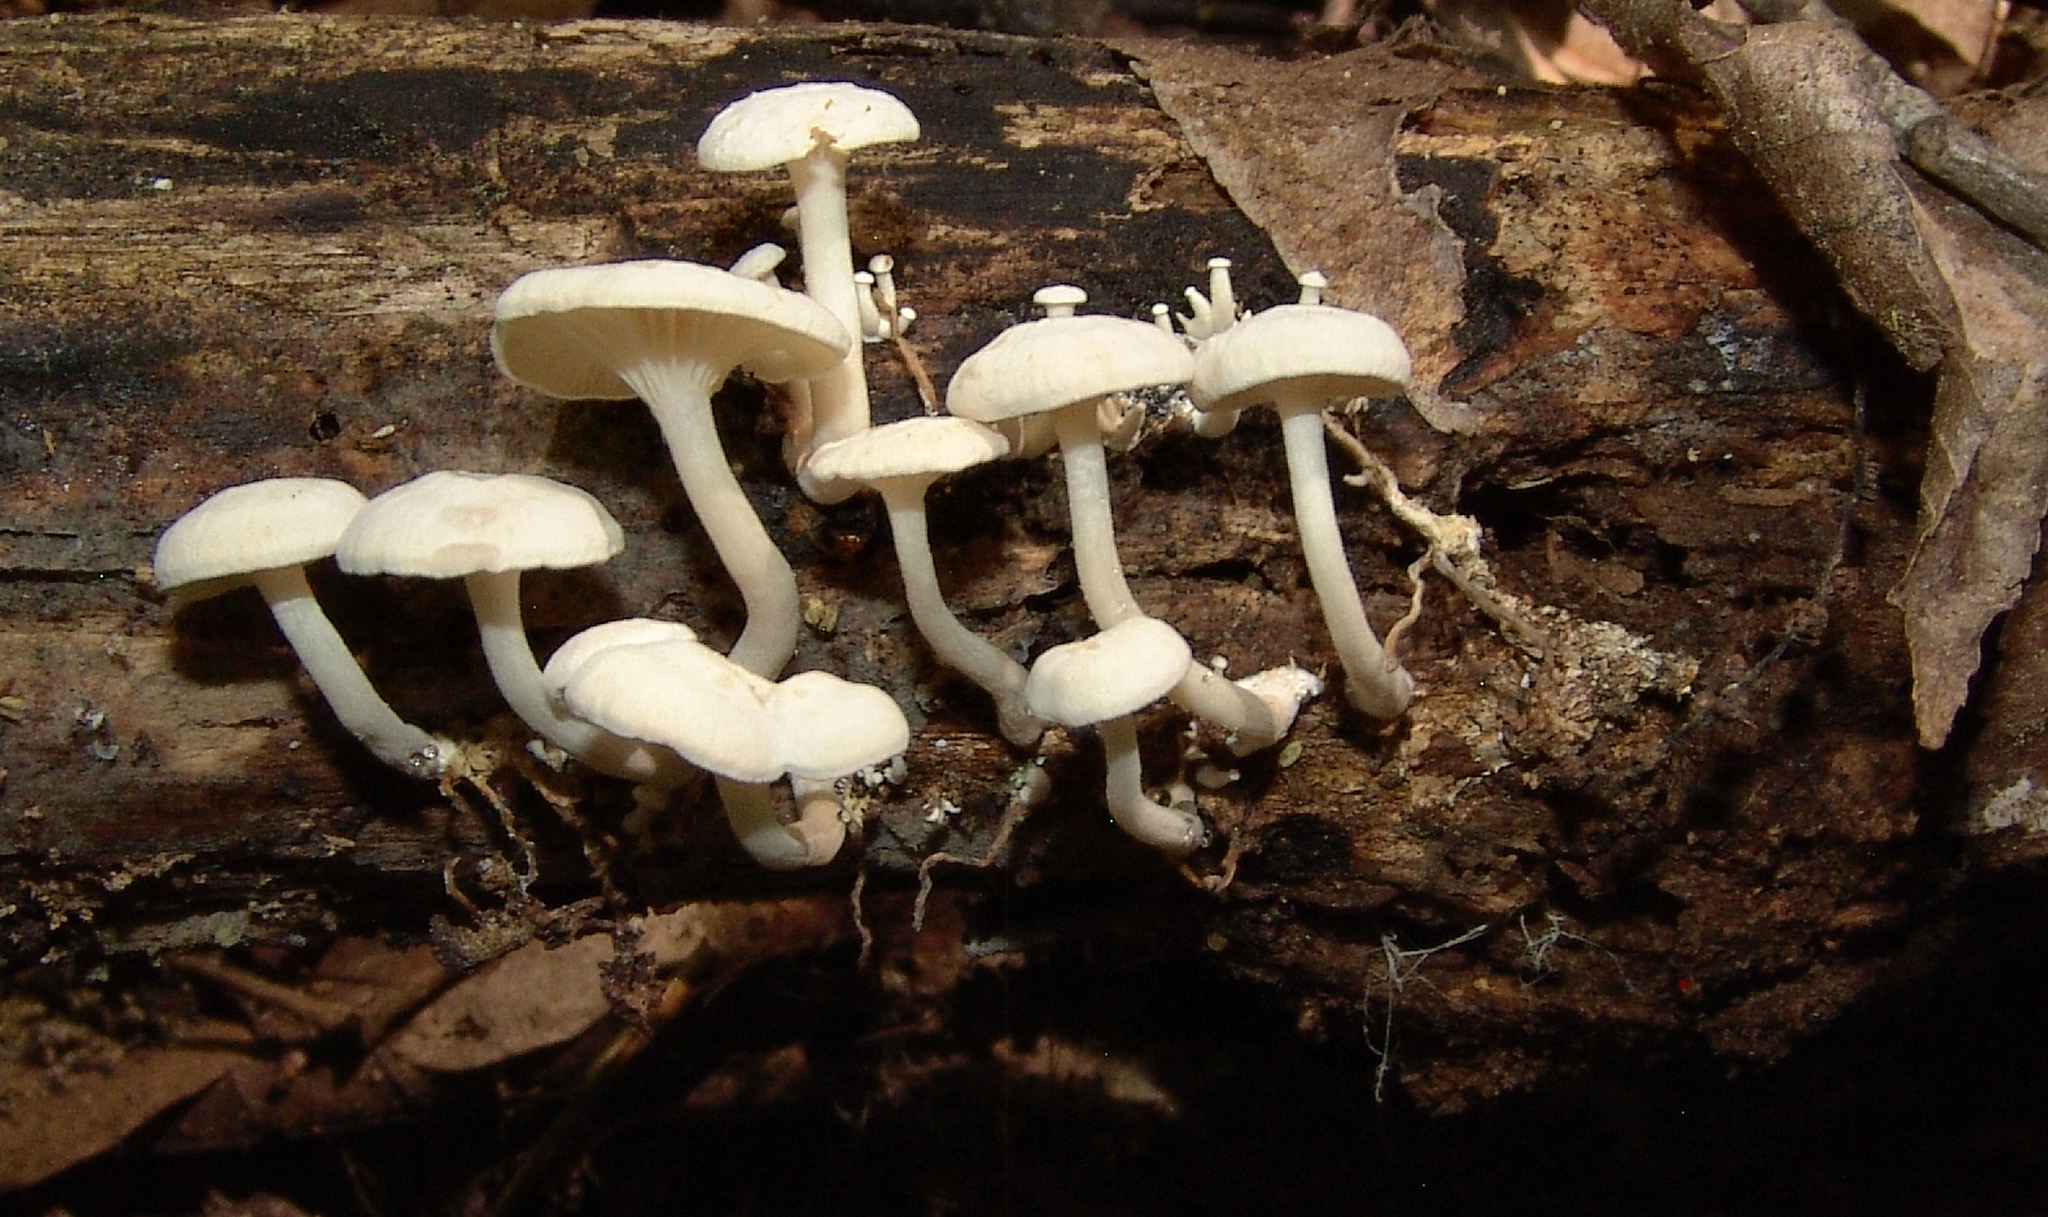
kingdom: Fungi
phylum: Basidiomycota
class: Agaricomycetes
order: Agaricales
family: Tricholomataceae
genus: Clitocybe
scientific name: Clitocybe peralbida
